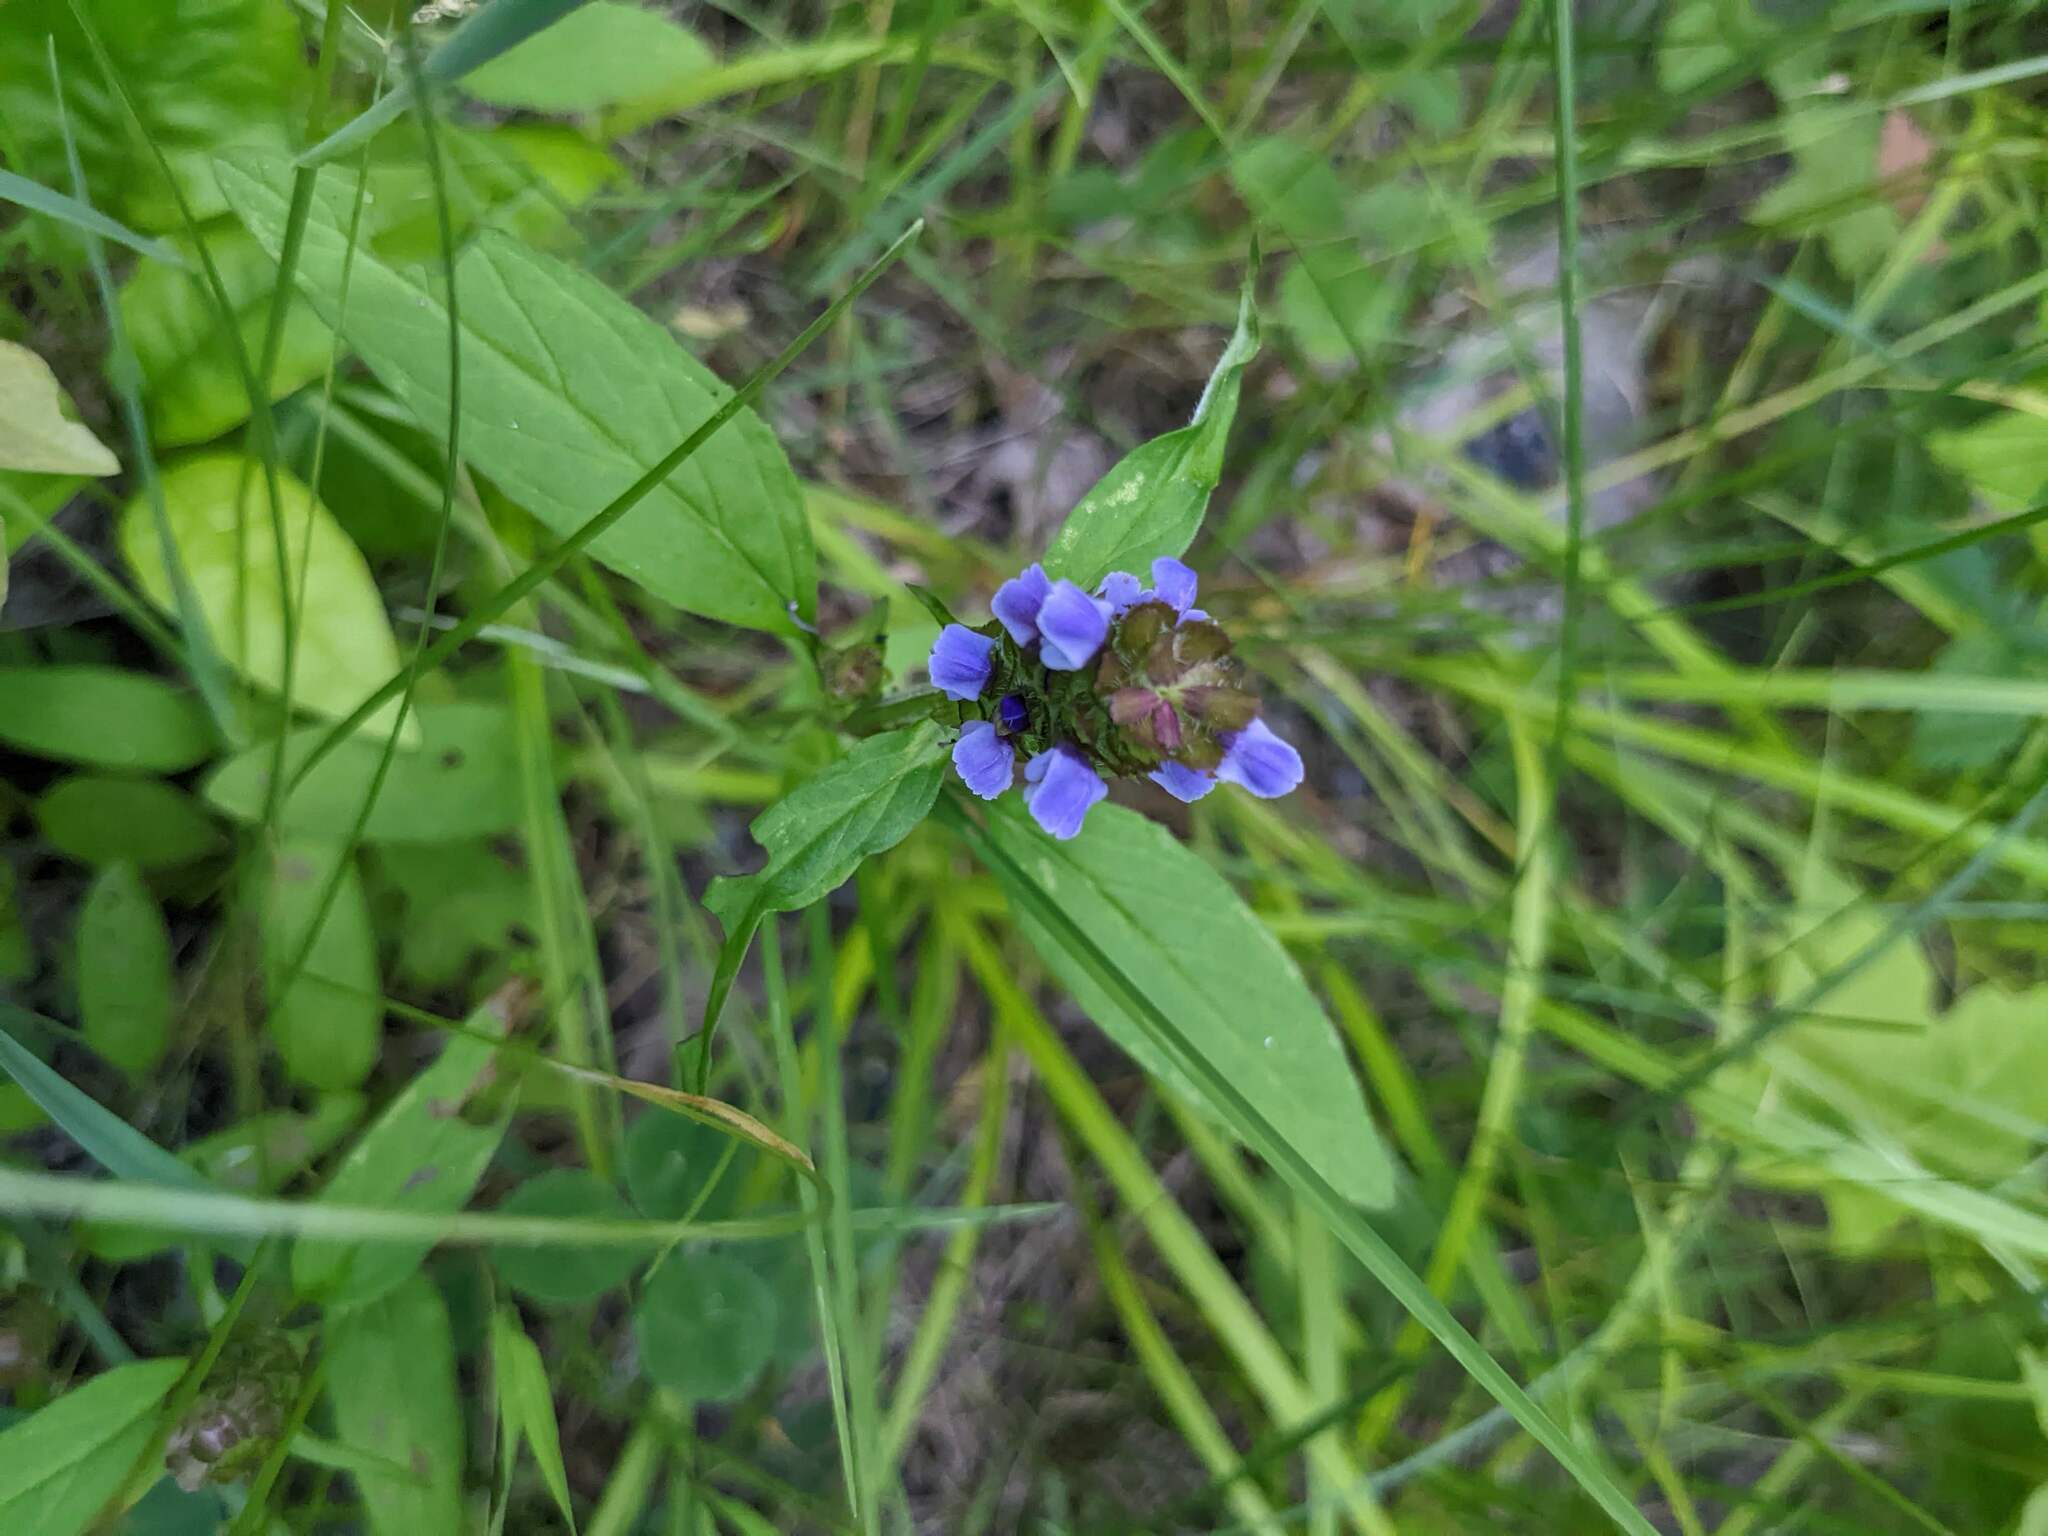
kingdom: Plantae
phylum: Tracheophyta
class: Magnoliopsida
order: Lamiales
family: Lamiaceae
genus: Prunella
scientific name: Prunella vulgaris
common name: Heal-all
